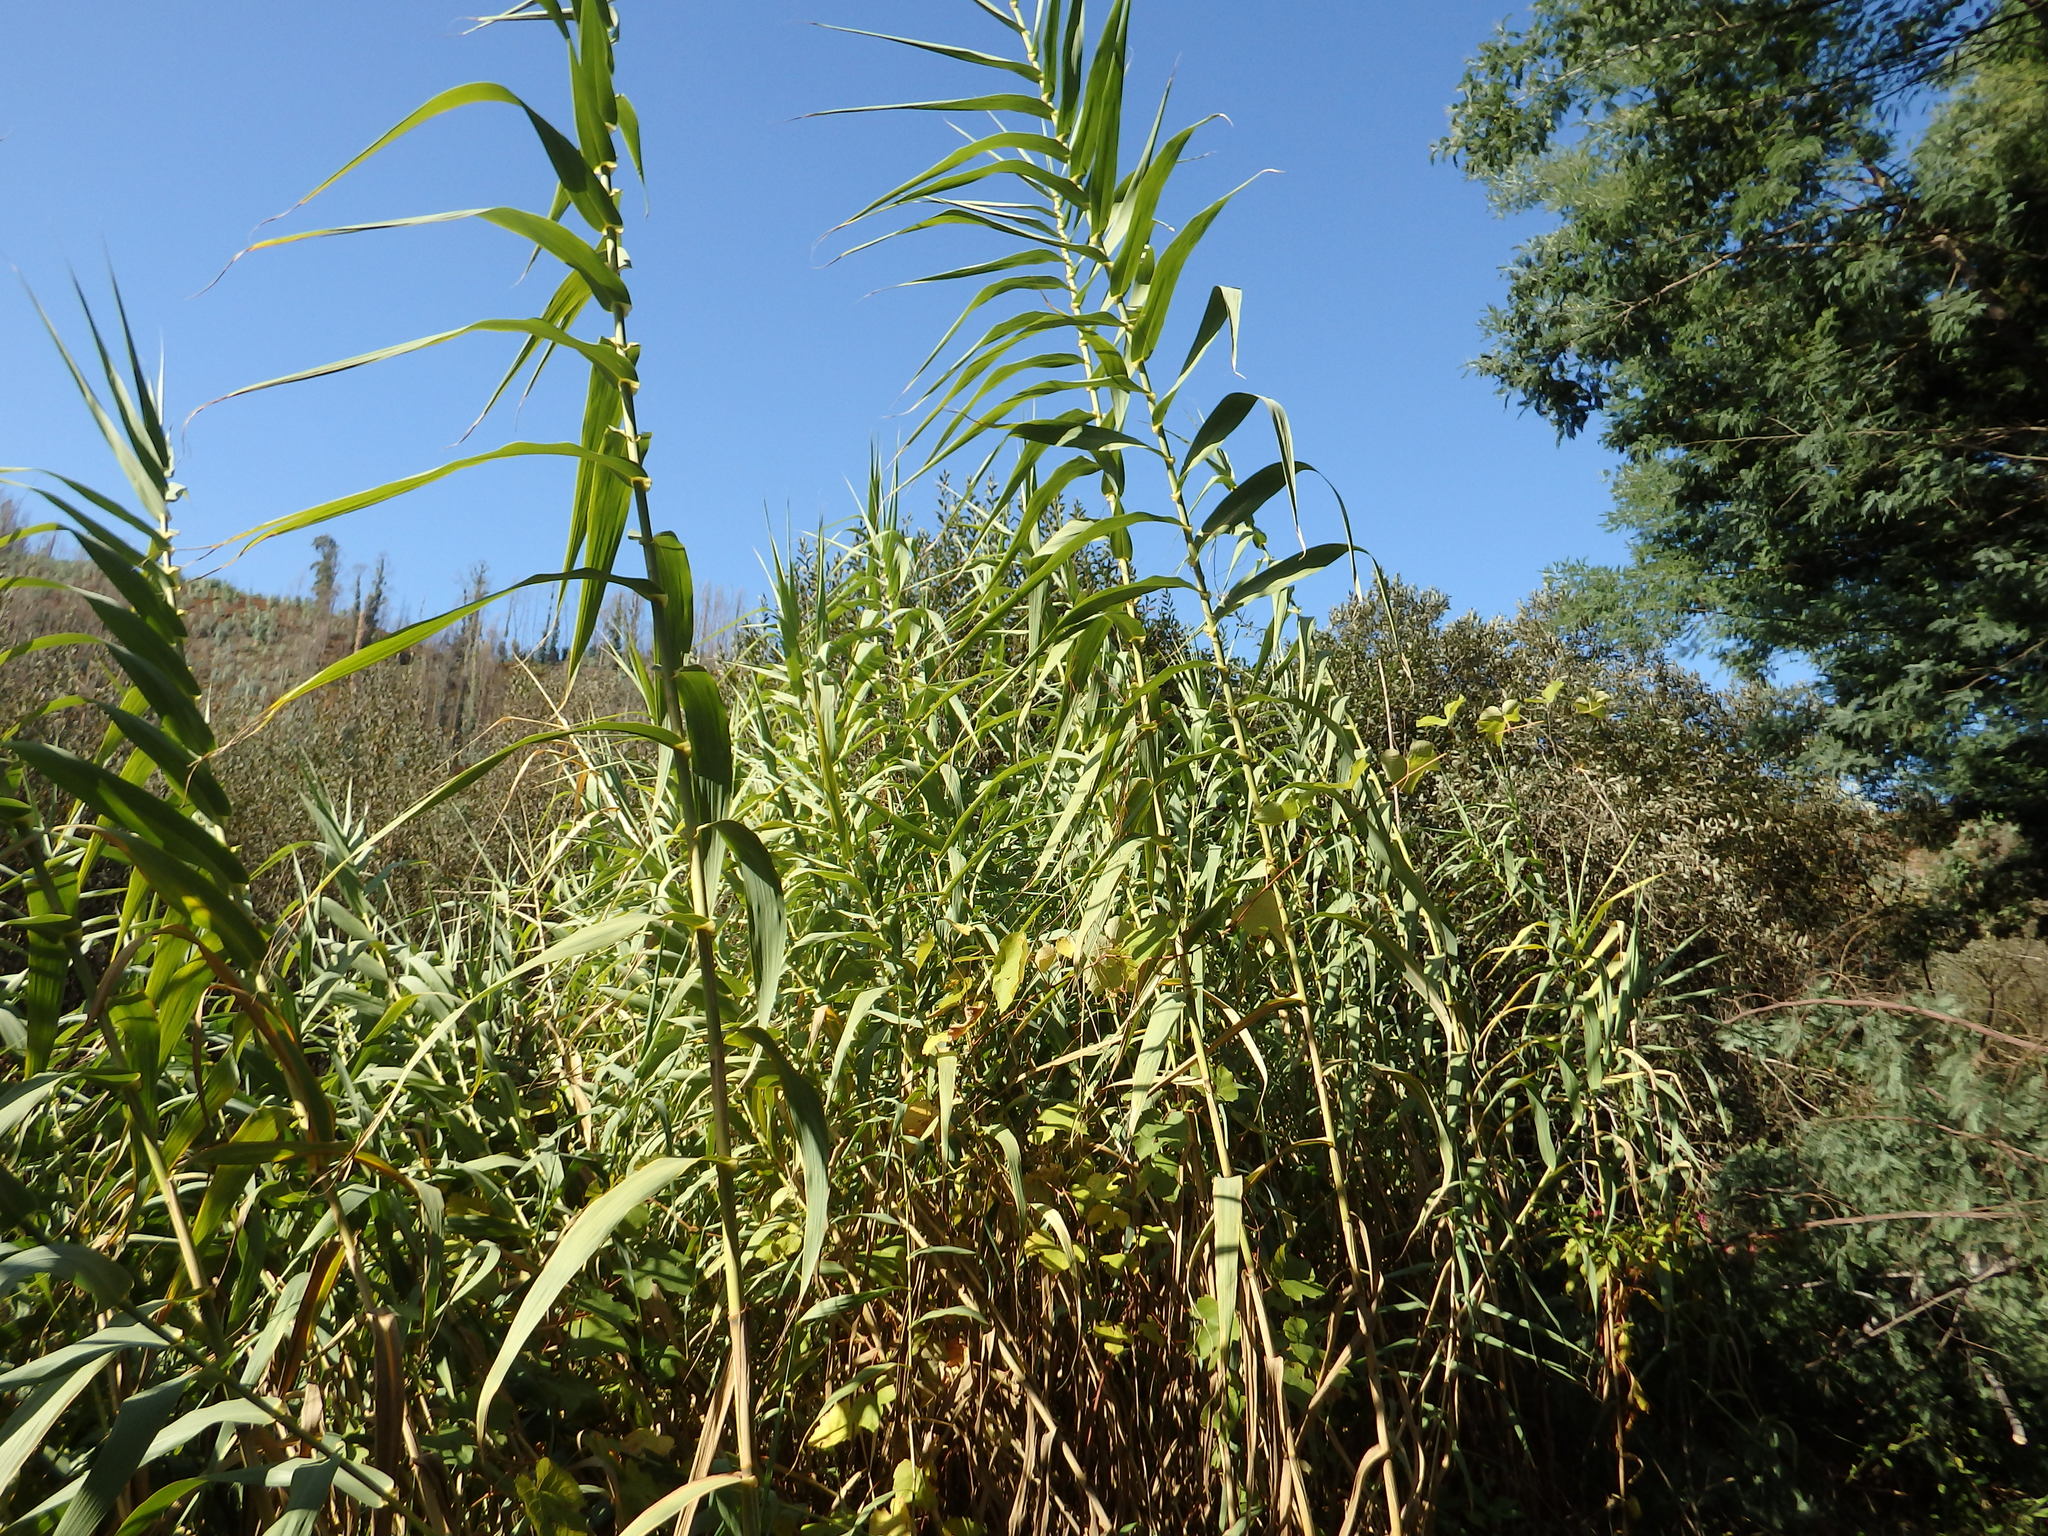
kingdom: Plantae
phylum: Tracheophyta
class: Liliopsida
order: Poales
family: Poaceae
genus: Arundo
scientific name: Arundo donax
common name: Giant reed
